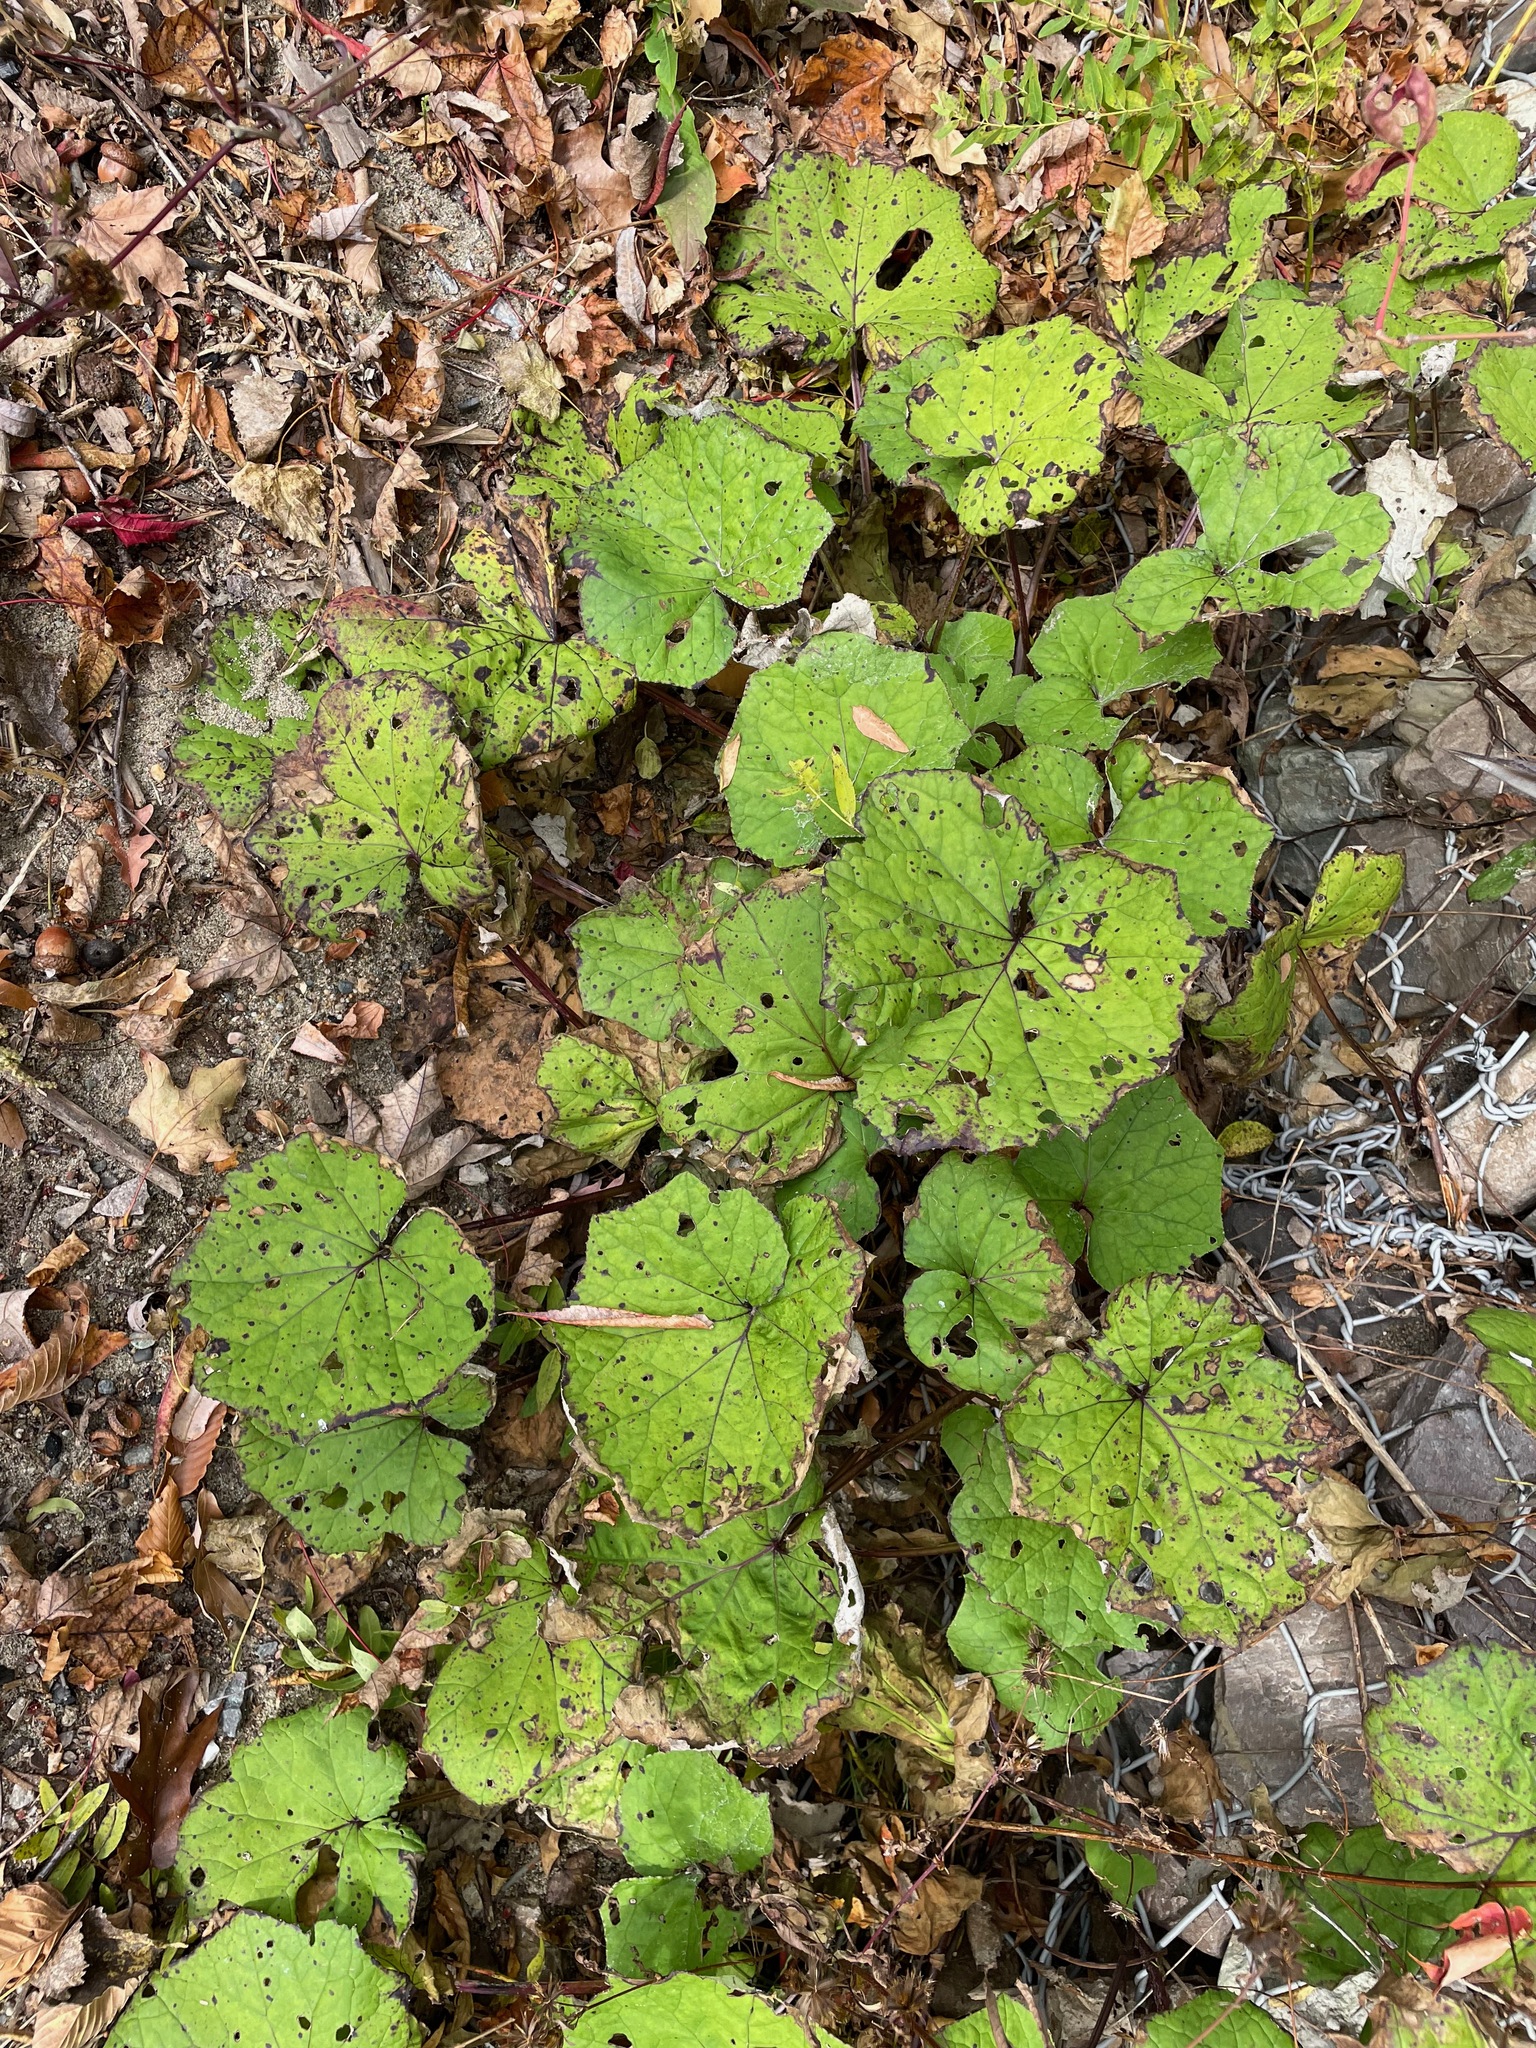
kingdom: Plantae
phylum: Tracheophyta
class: Magnoliopsida
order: Asterales
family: Asteraceae
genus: Tussilago
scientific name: Tussilago farfara
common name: Coltsfoot
